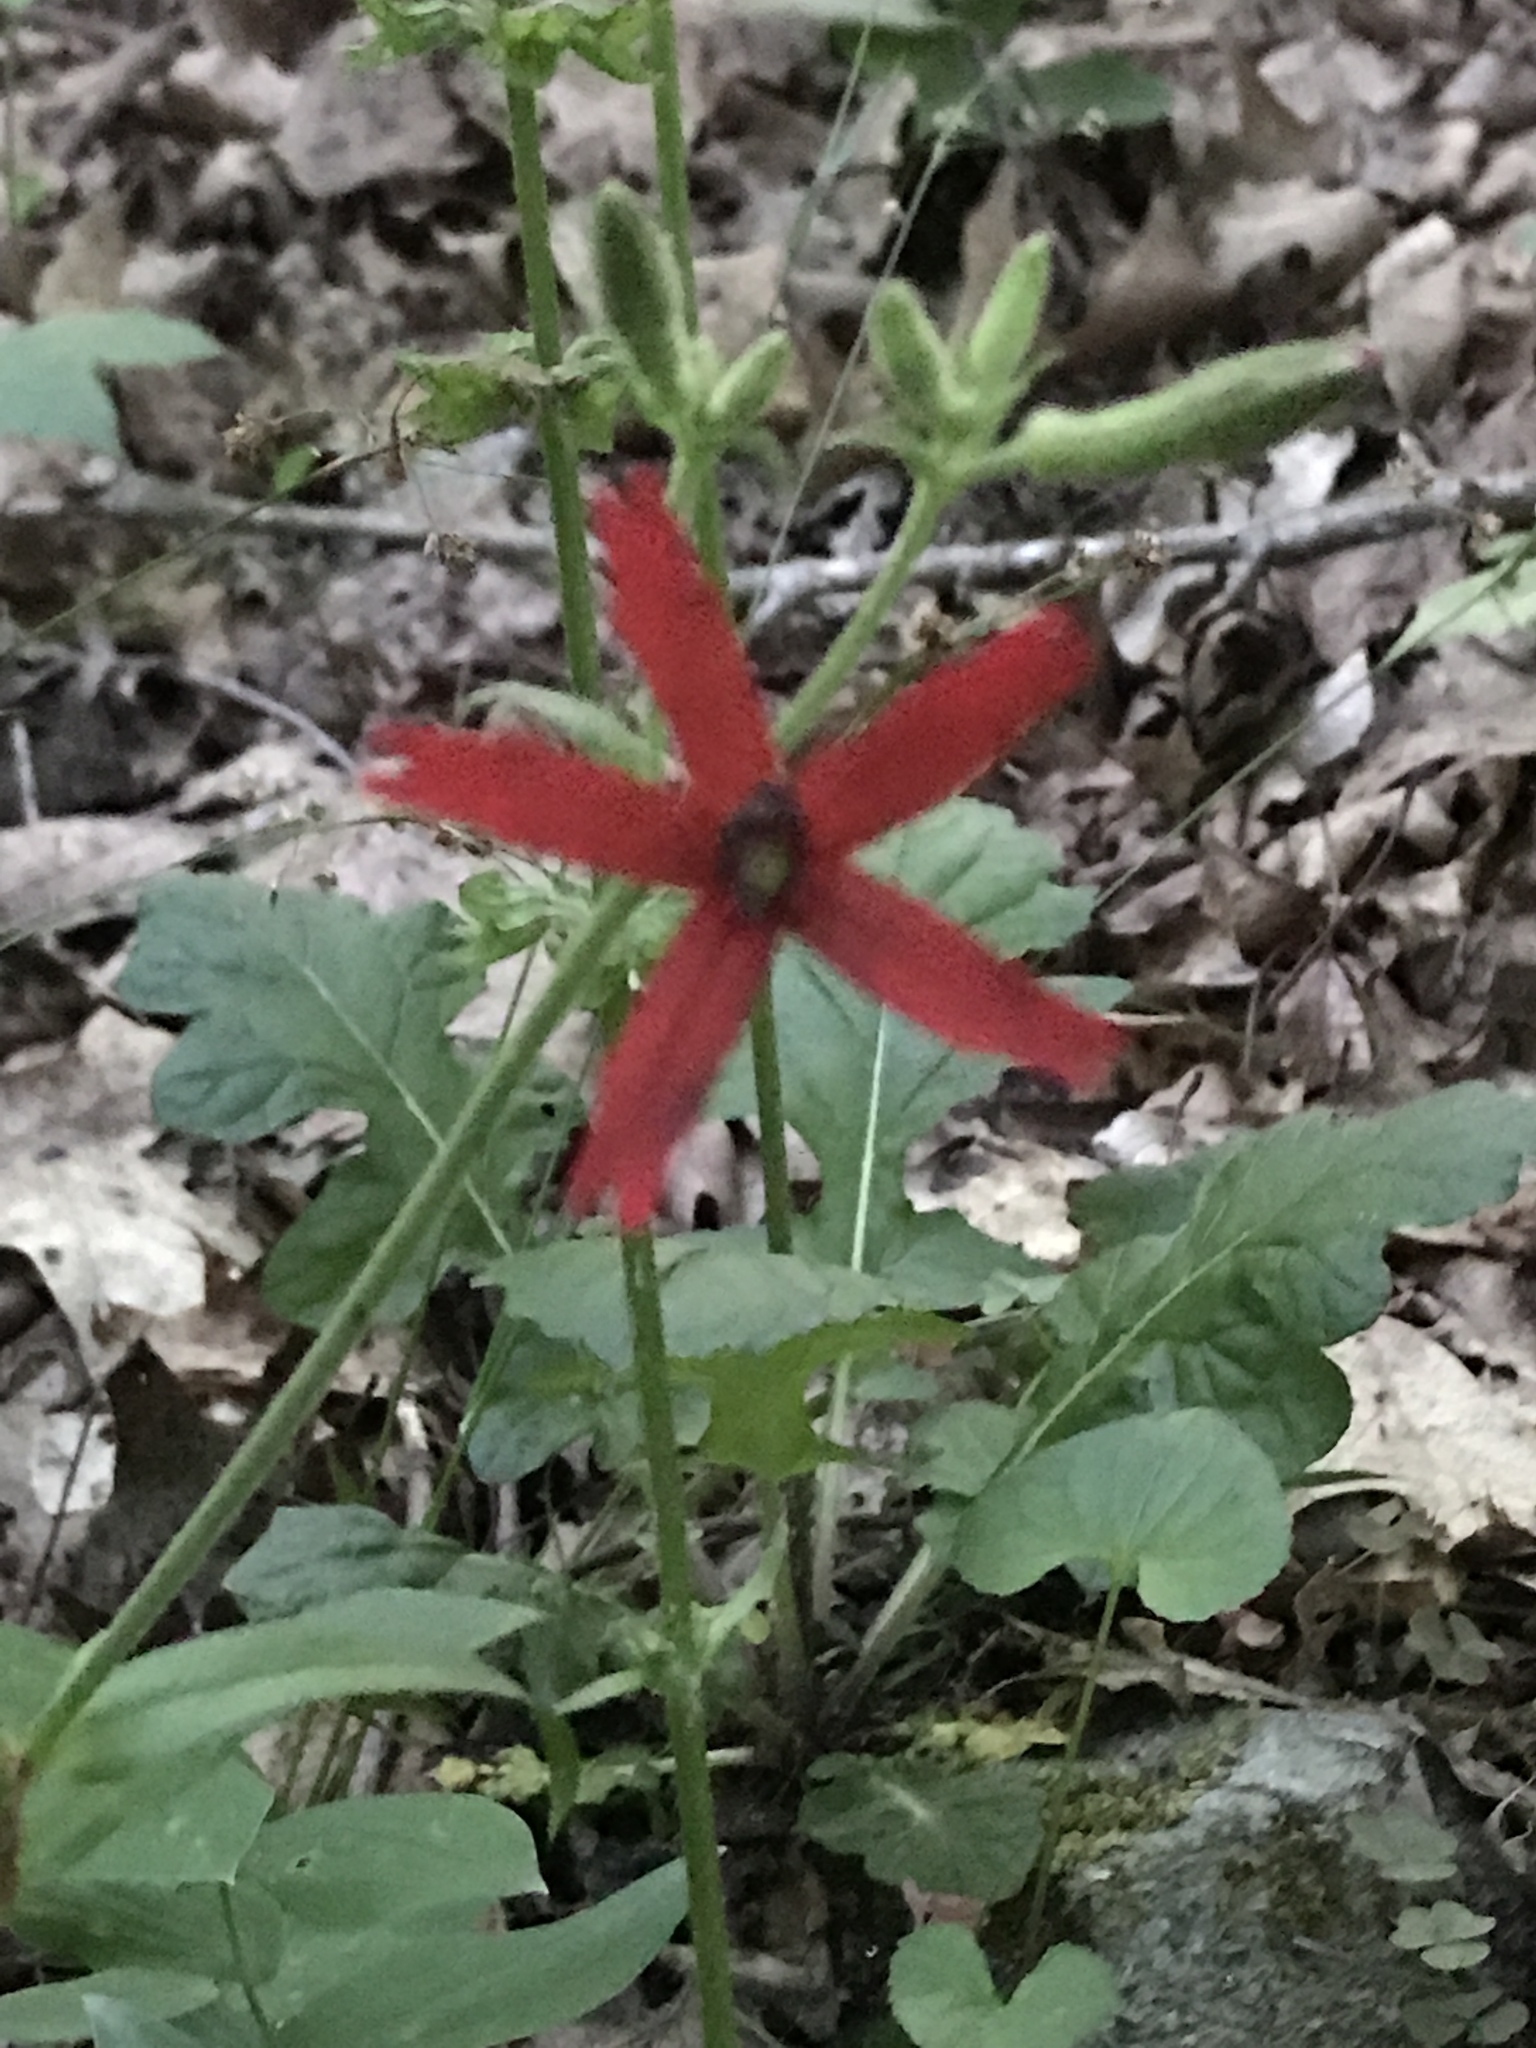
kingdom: Plantae
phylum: Tracheophyta
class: Magnoliopsida
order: Caryophyllales
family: Caryophyllaceae
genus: Silene
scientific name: Silene virginica
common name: Fire-pink
